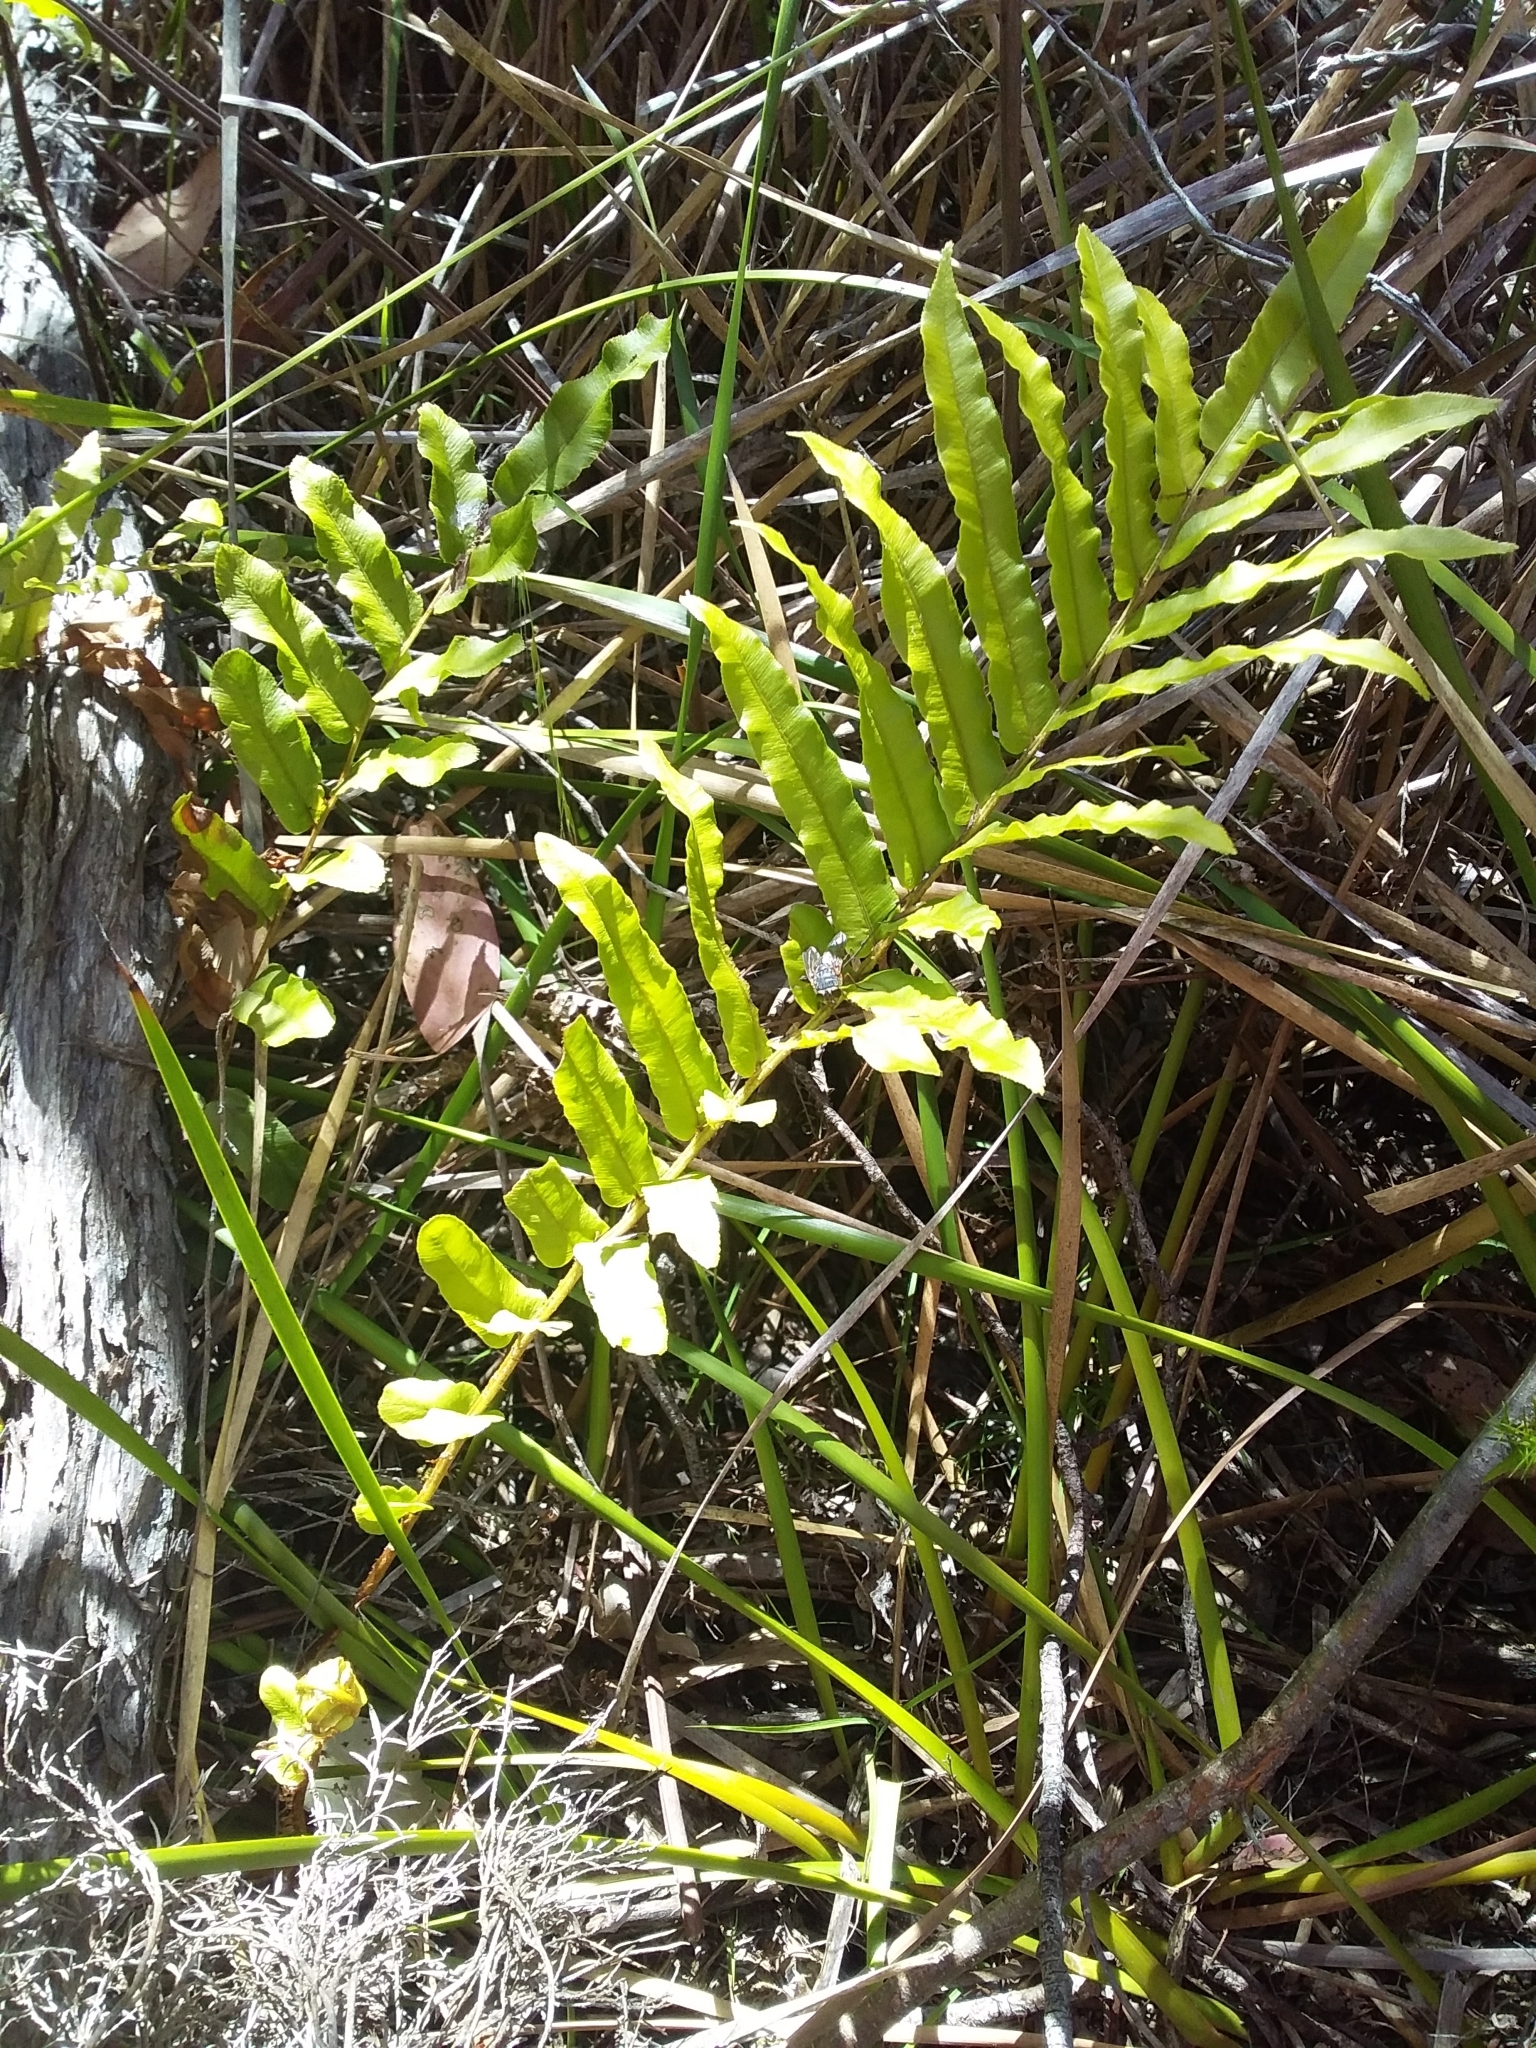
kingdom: Plantae
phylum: Tracheophyta
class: Polypodiopsida
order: Polypodiales
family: Blechnaceae
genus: Parablechnum
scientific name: Parablechnum minus
